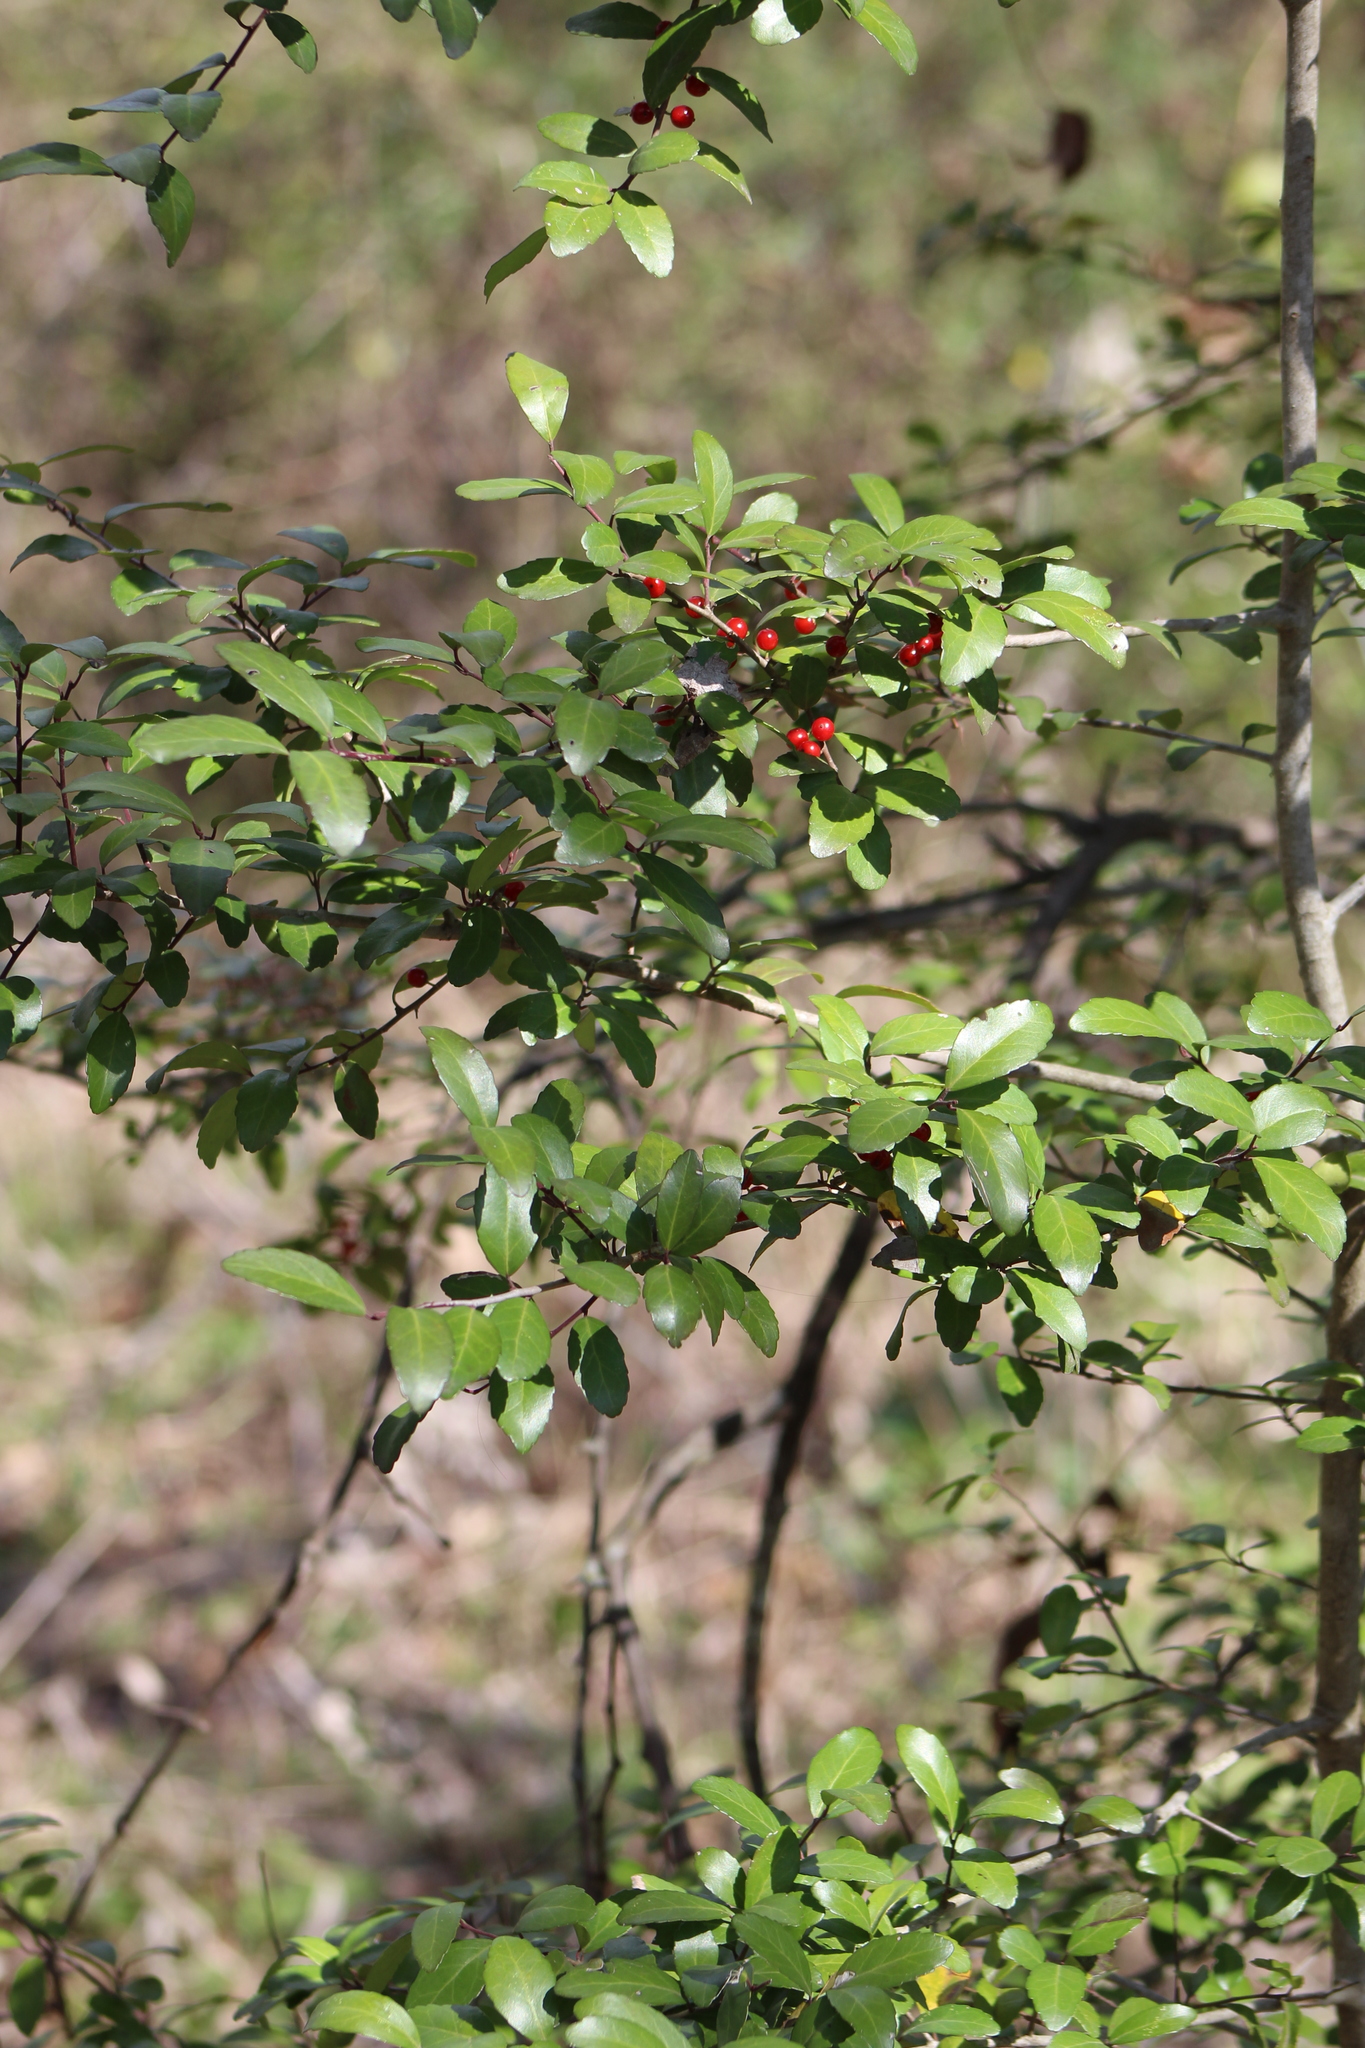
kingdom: Plantae
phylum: Tracheophyta
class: Magnoliopsida
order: Aquifoliales
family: Aquifoliaceae
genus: Ilex
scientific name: Ilex vomitoria
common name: Yaupon holly
